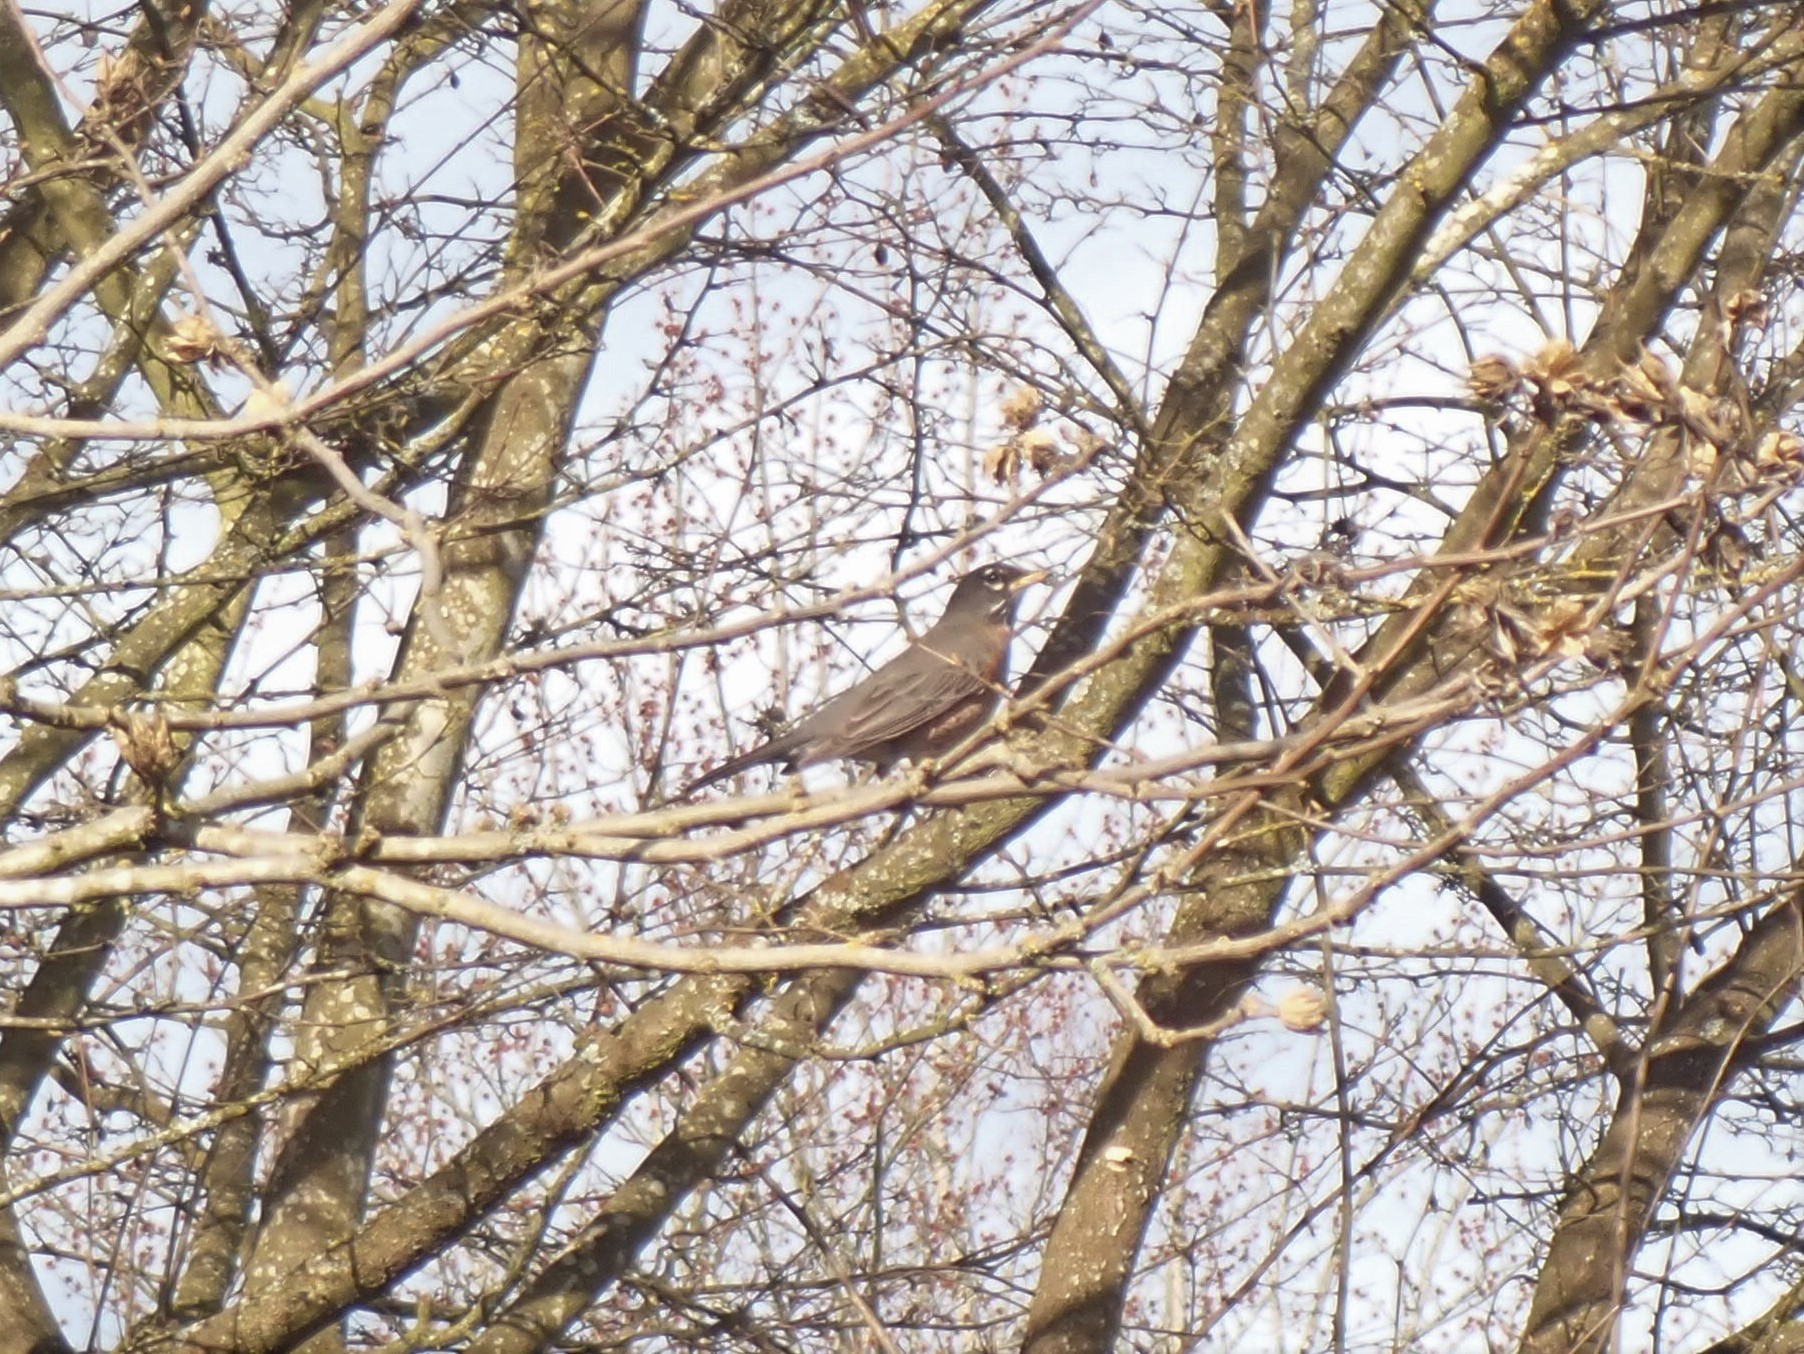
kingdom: Animalia
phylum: Chordata
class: Aves
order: Passeriformes
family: Turdidae
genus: Turdus
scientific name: Turdus migratorius
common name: American robin
